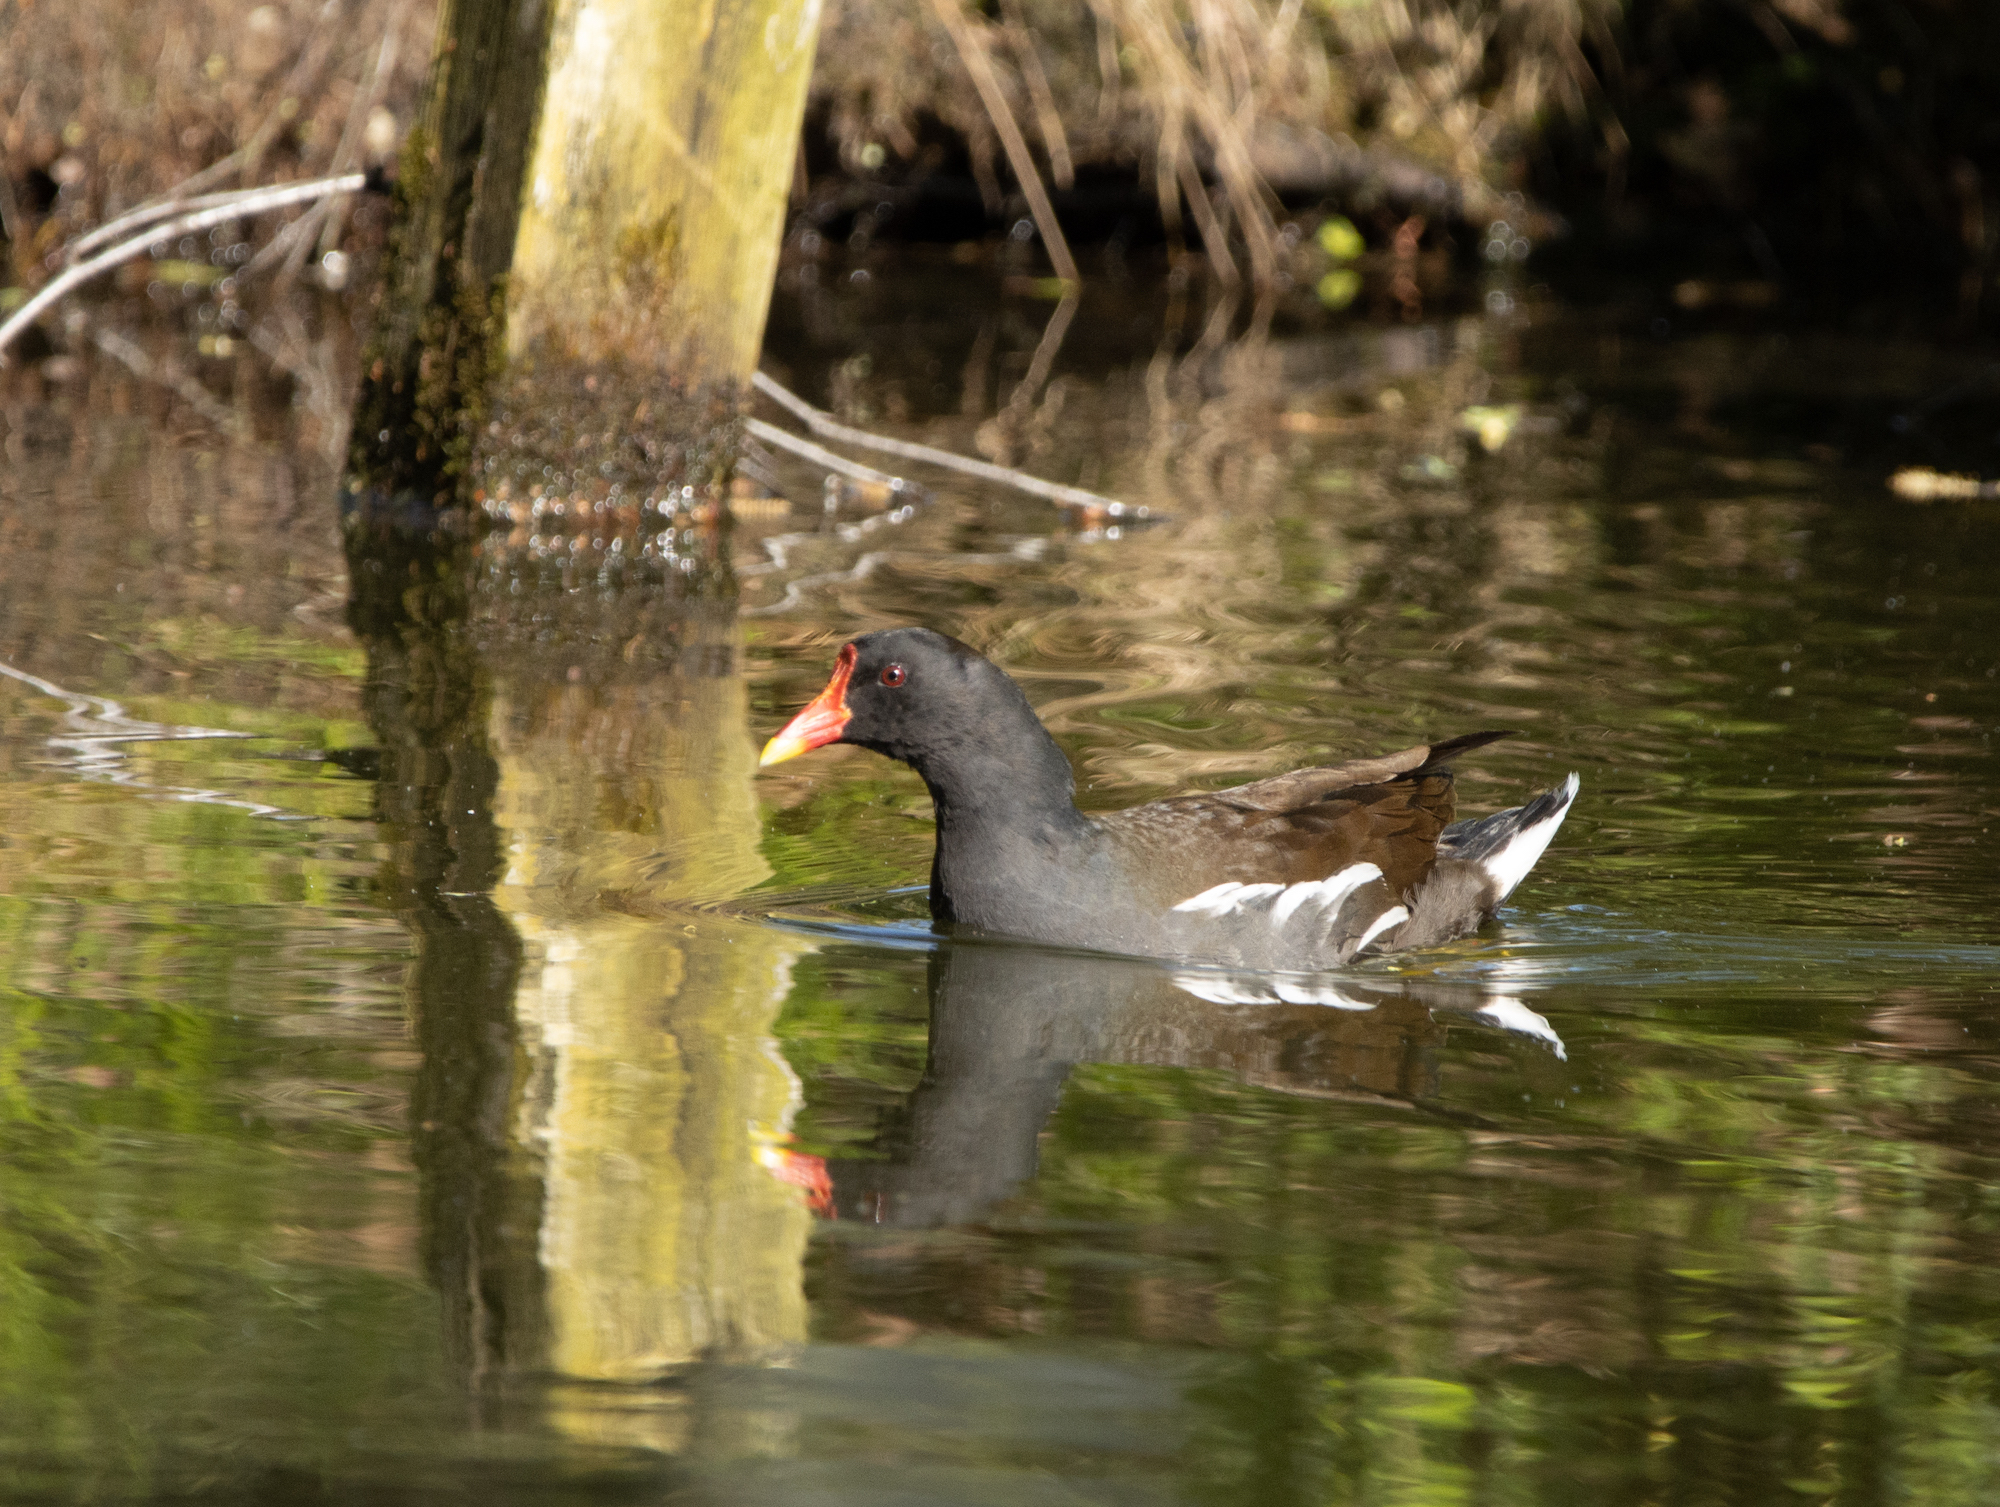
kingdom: Animalia
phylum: Chordata
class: Aves
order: Gruiformes
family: Rallidae
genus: Gallinula
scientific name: Gallinula chloropus
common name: Common moorhen
